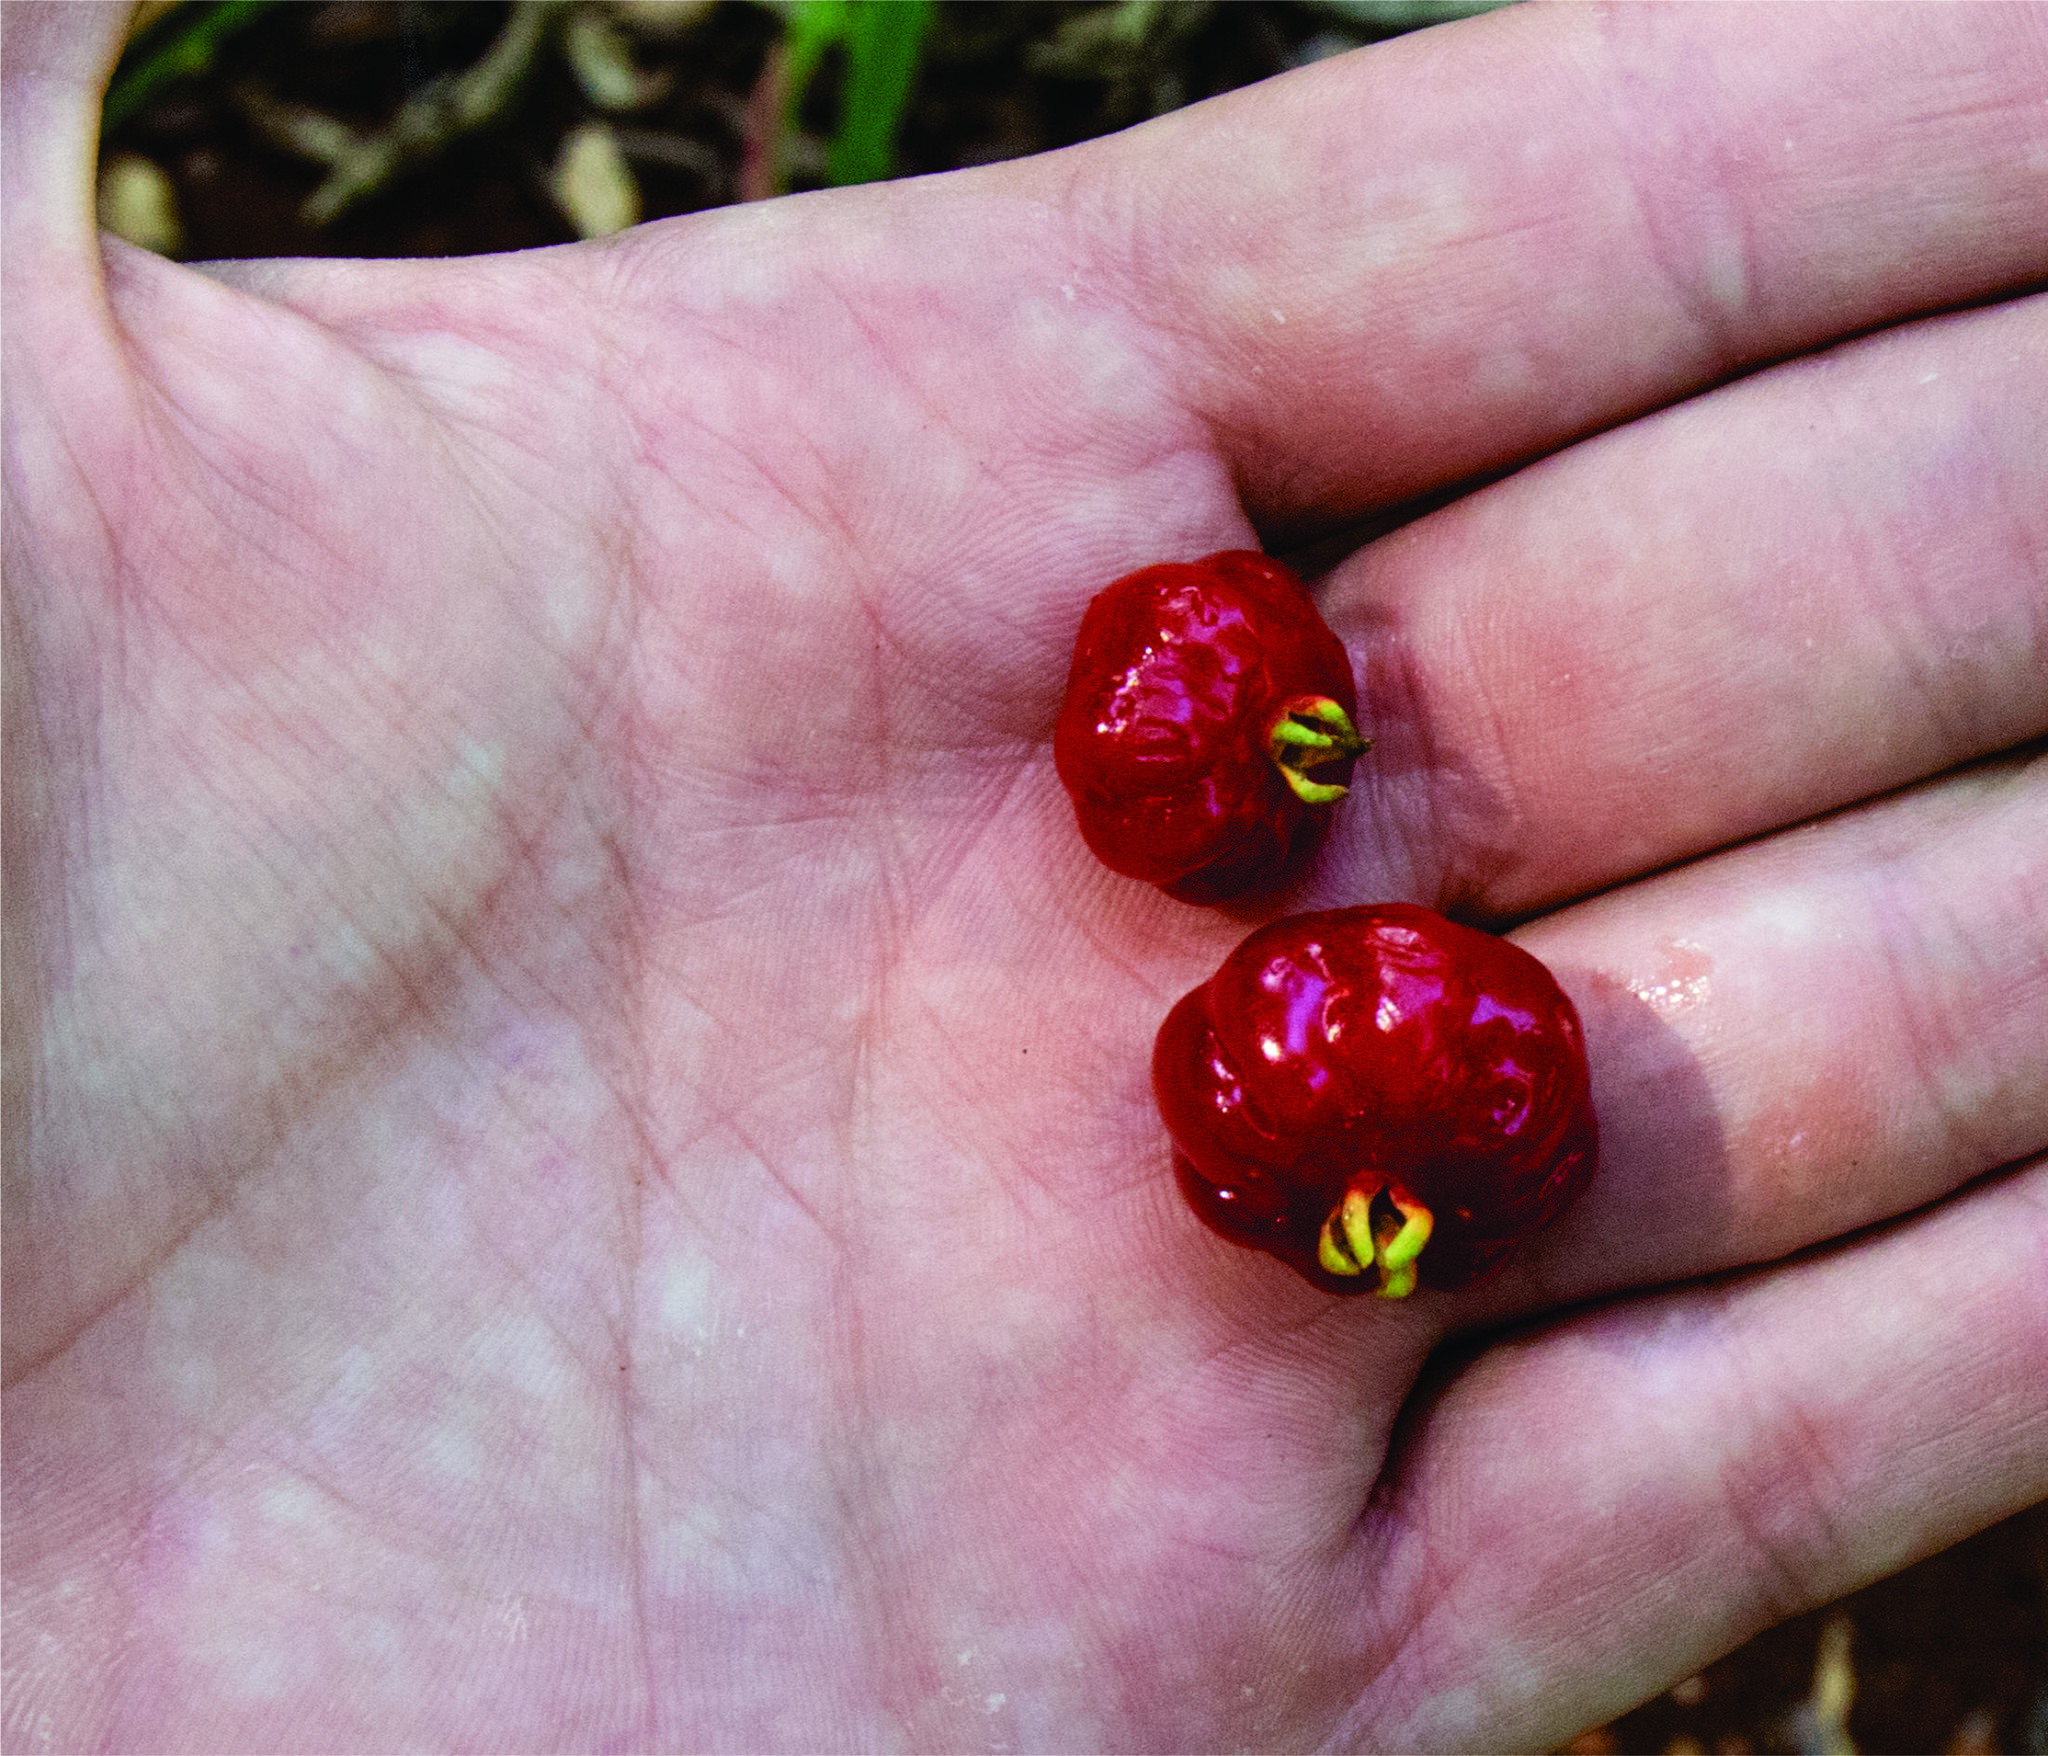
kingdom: Plantae
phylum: Tracheophyta
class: Magnoliopsida
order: Myrtales
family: Myrtaceae
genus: Eugenia
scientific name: Eugenia uniflora
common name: Surinam cherry
